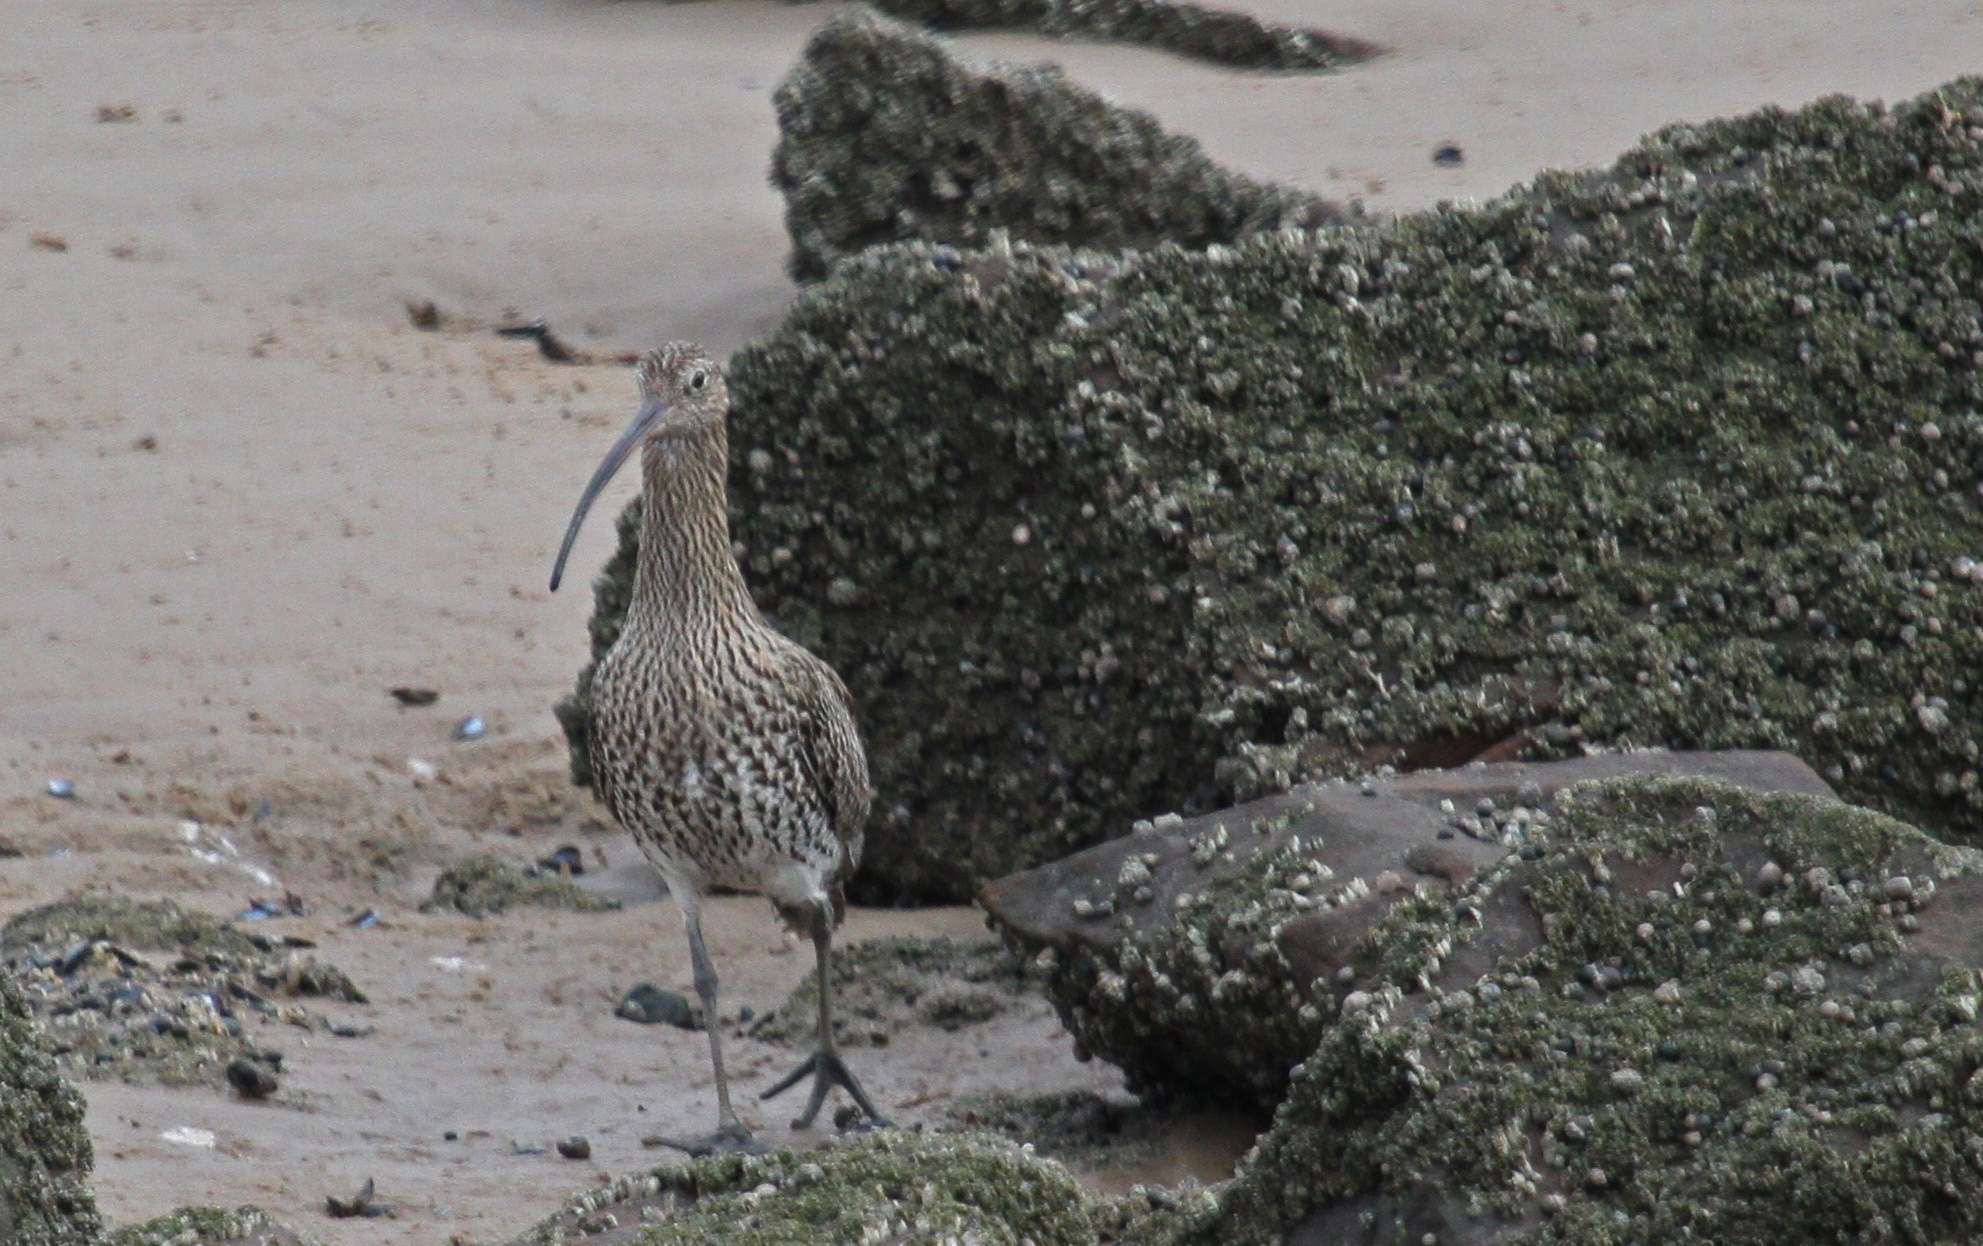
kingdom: Animalia
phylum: Chordata
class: Aves
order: Charadriiformes
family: Scolopacidae
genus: Numenius
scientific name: Numenius arquata
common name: Eurasian curlew
